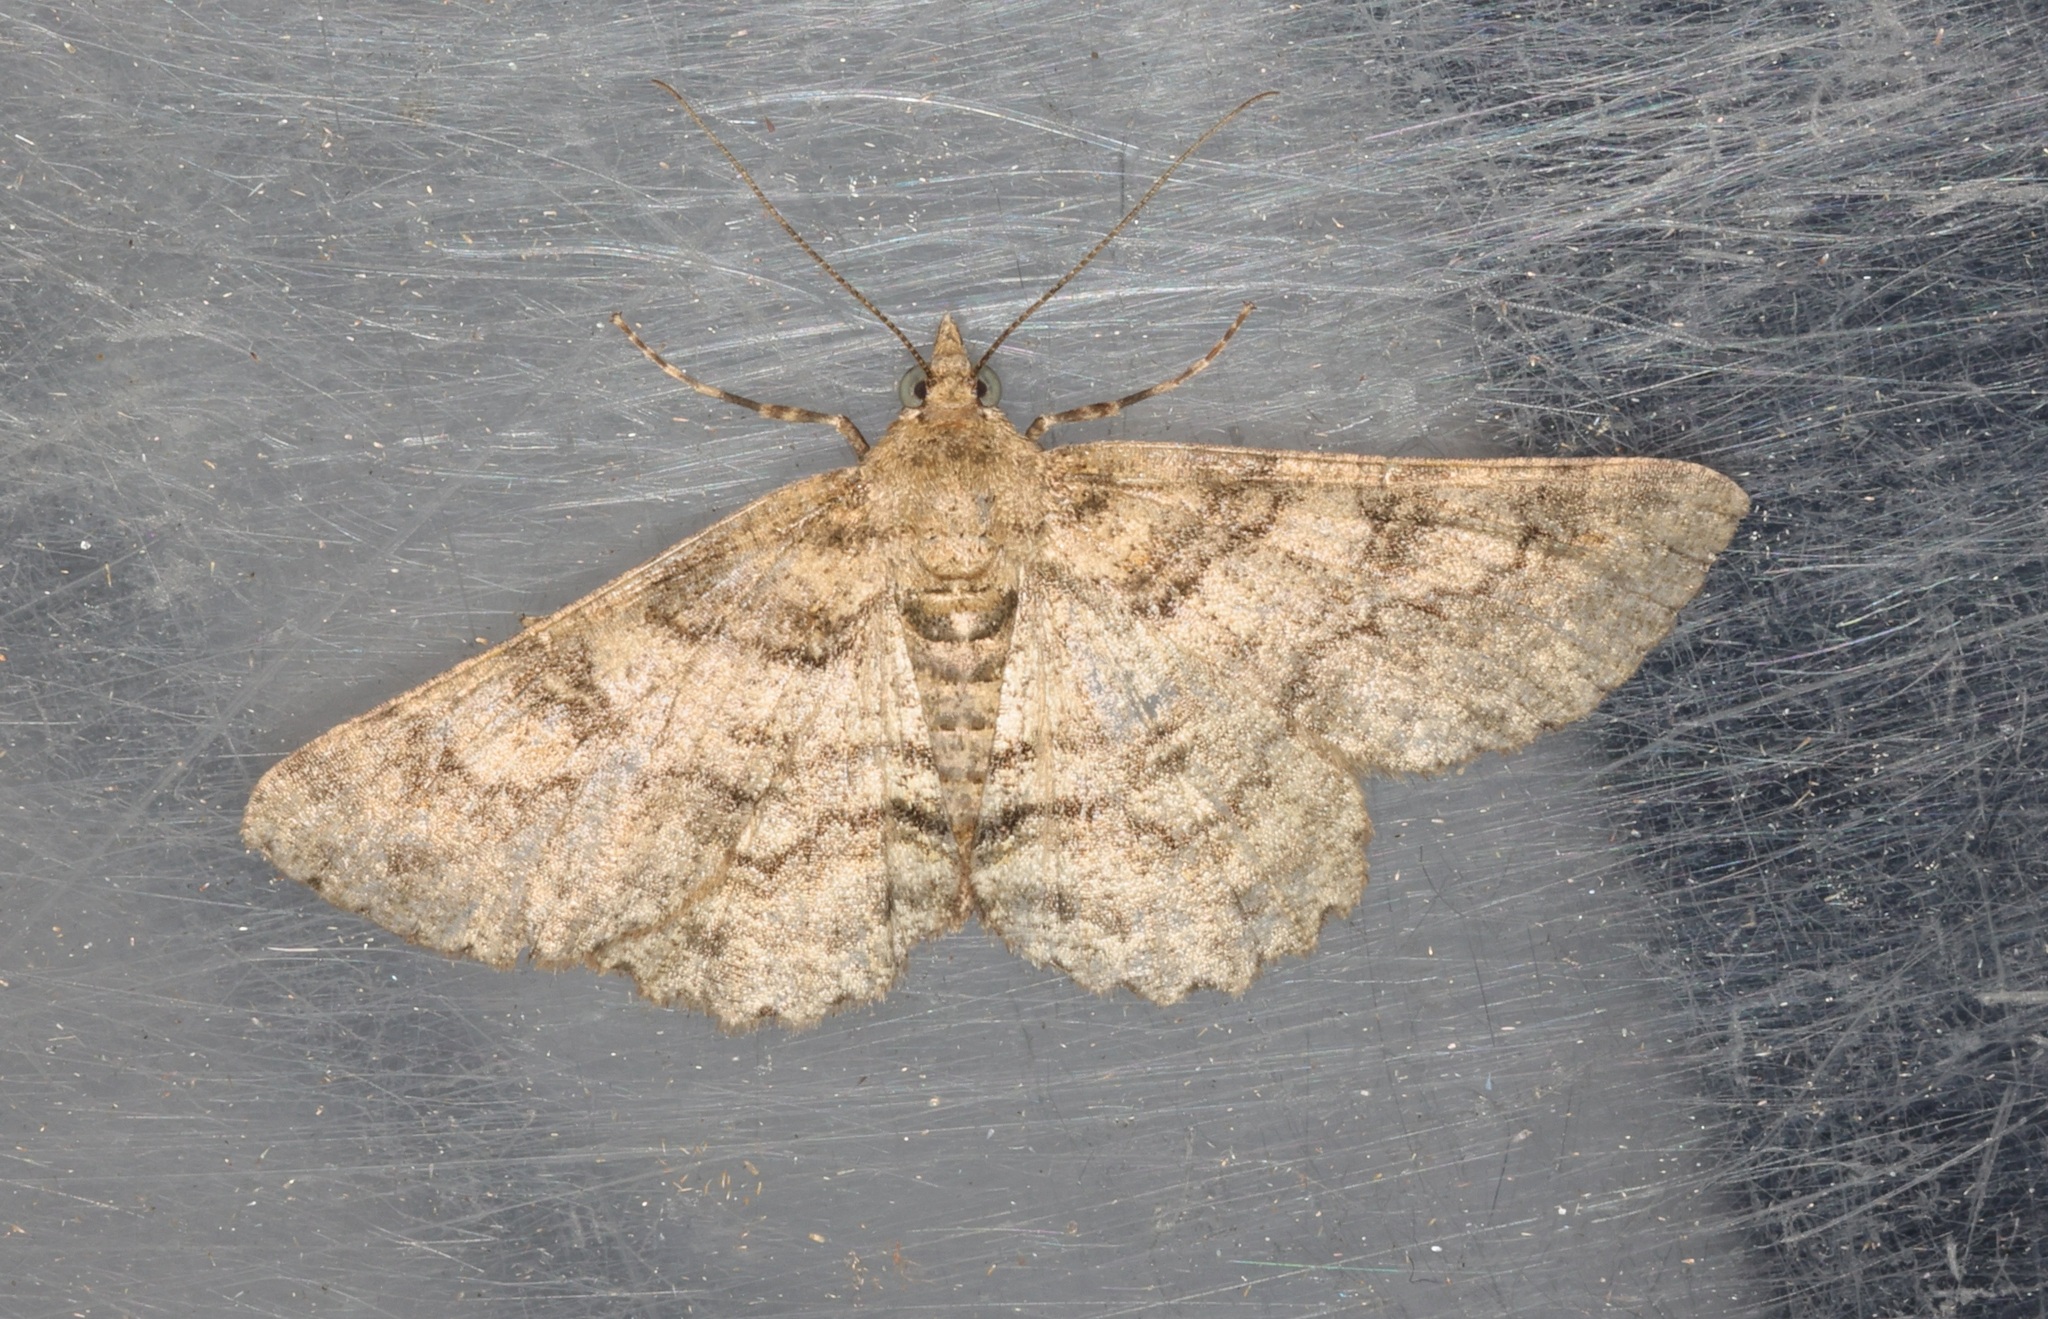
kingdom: Animalia
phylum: Arthropoda
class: Insecta
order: Lepidoptera
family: Geometridae
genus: Cleora
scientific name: Cleora injectaria
